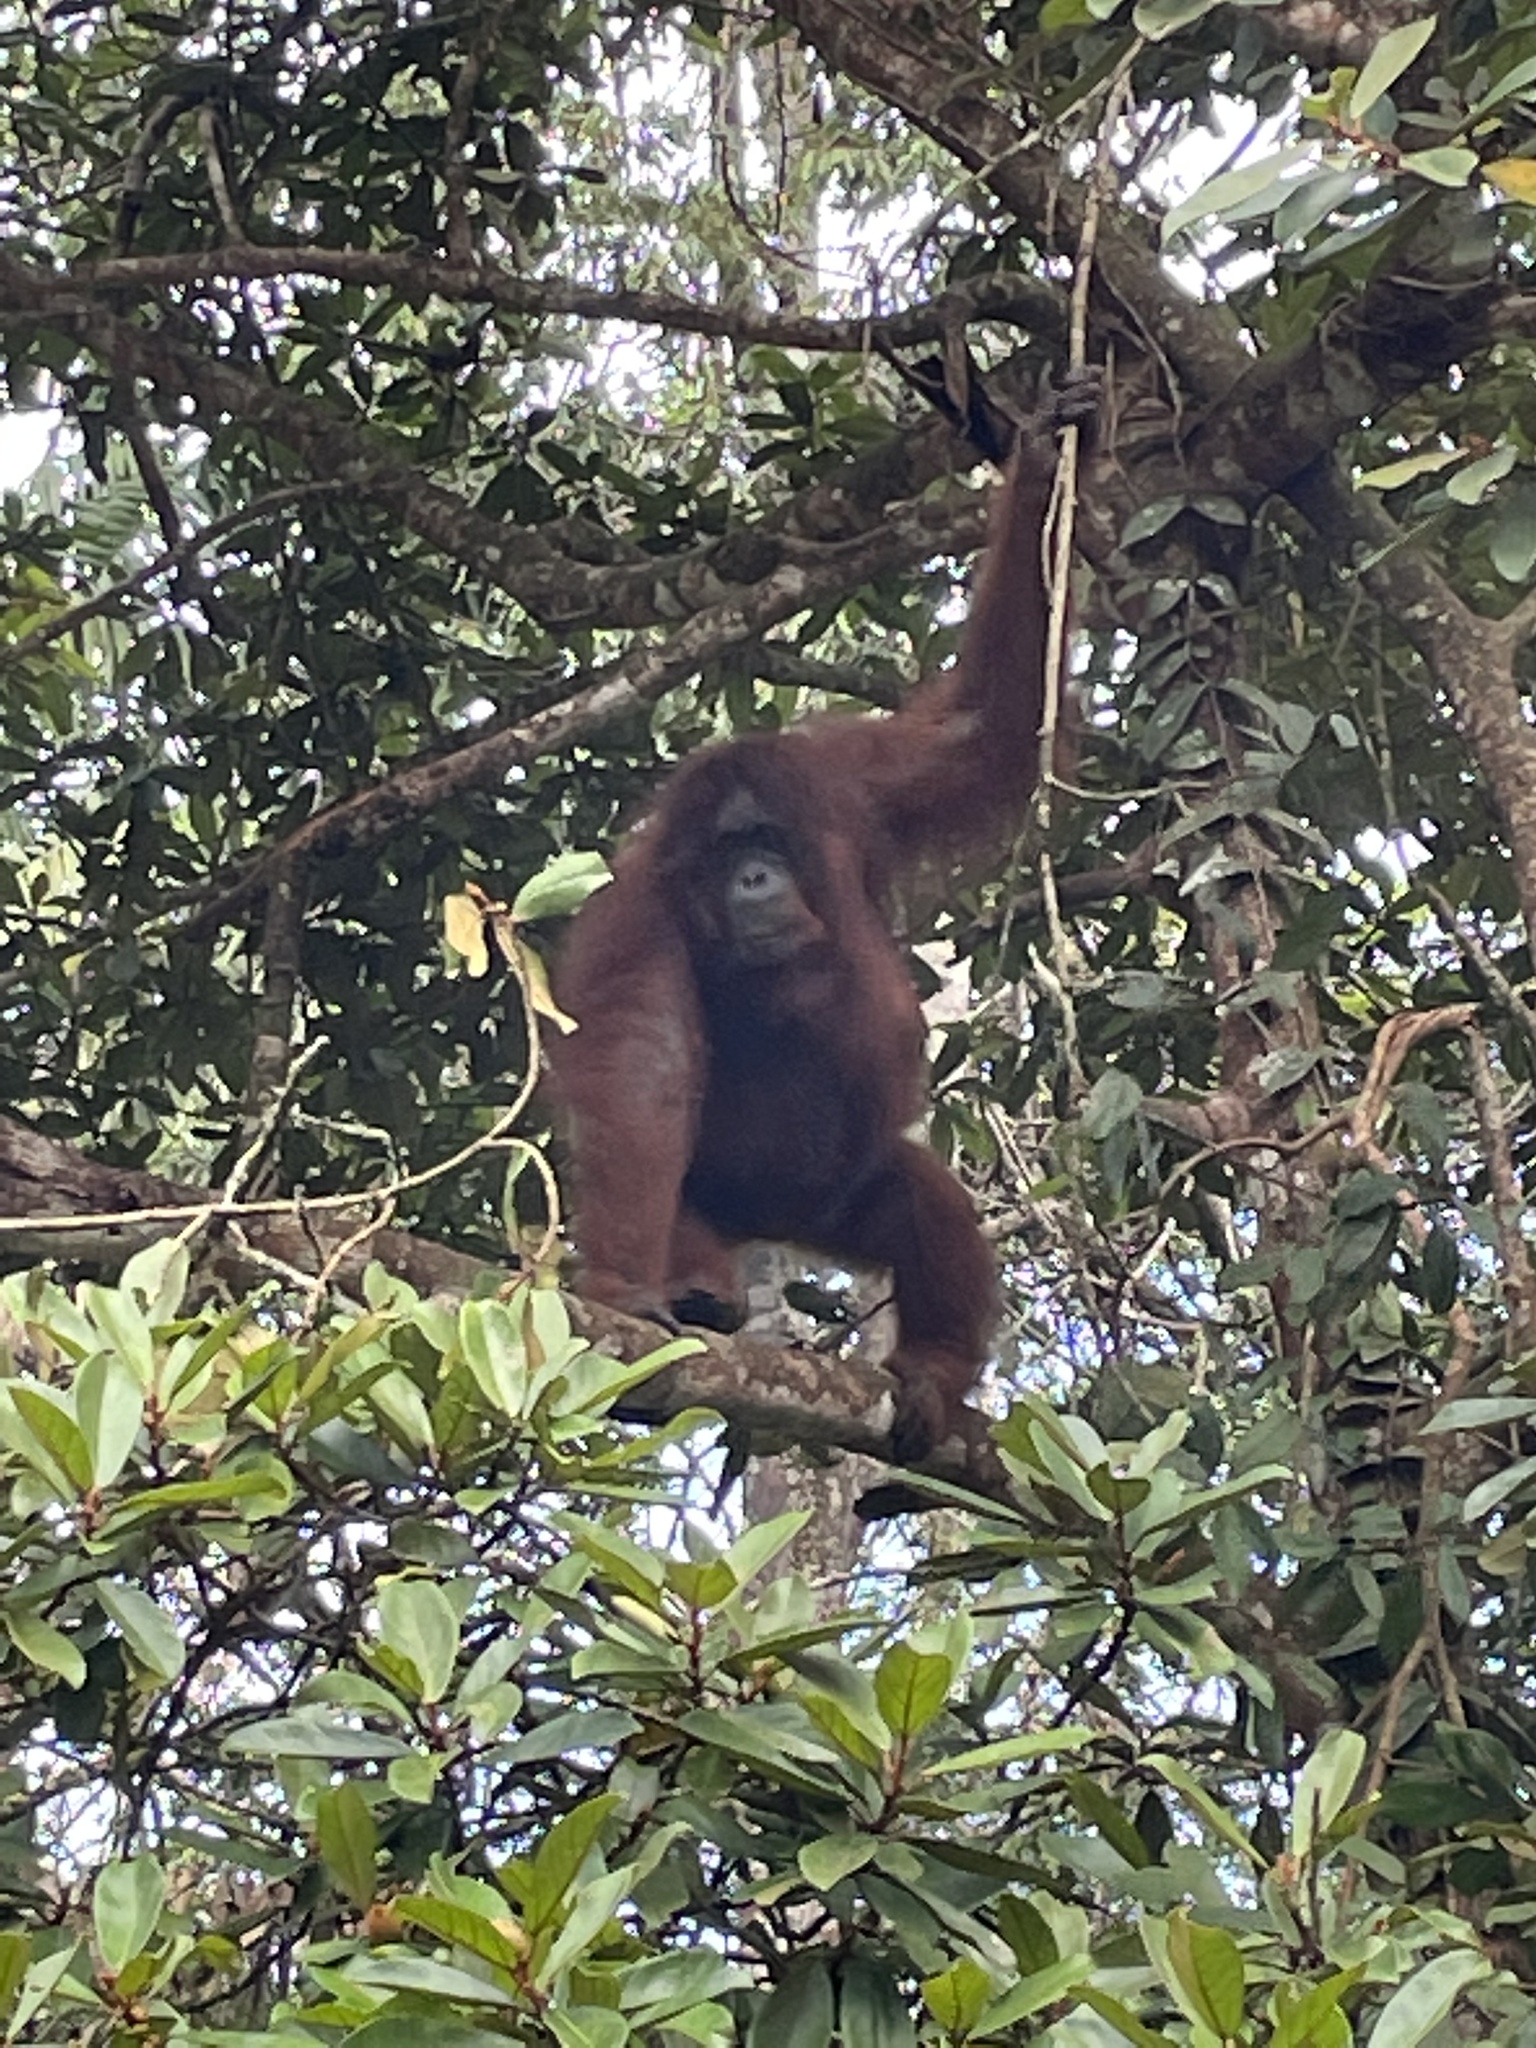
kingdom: Animalia
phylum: Chordata
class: Mammalia
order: Primates
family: Hominidae
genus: Pongo
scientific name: Pongo pygmaeus
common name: Bornean orangutan
